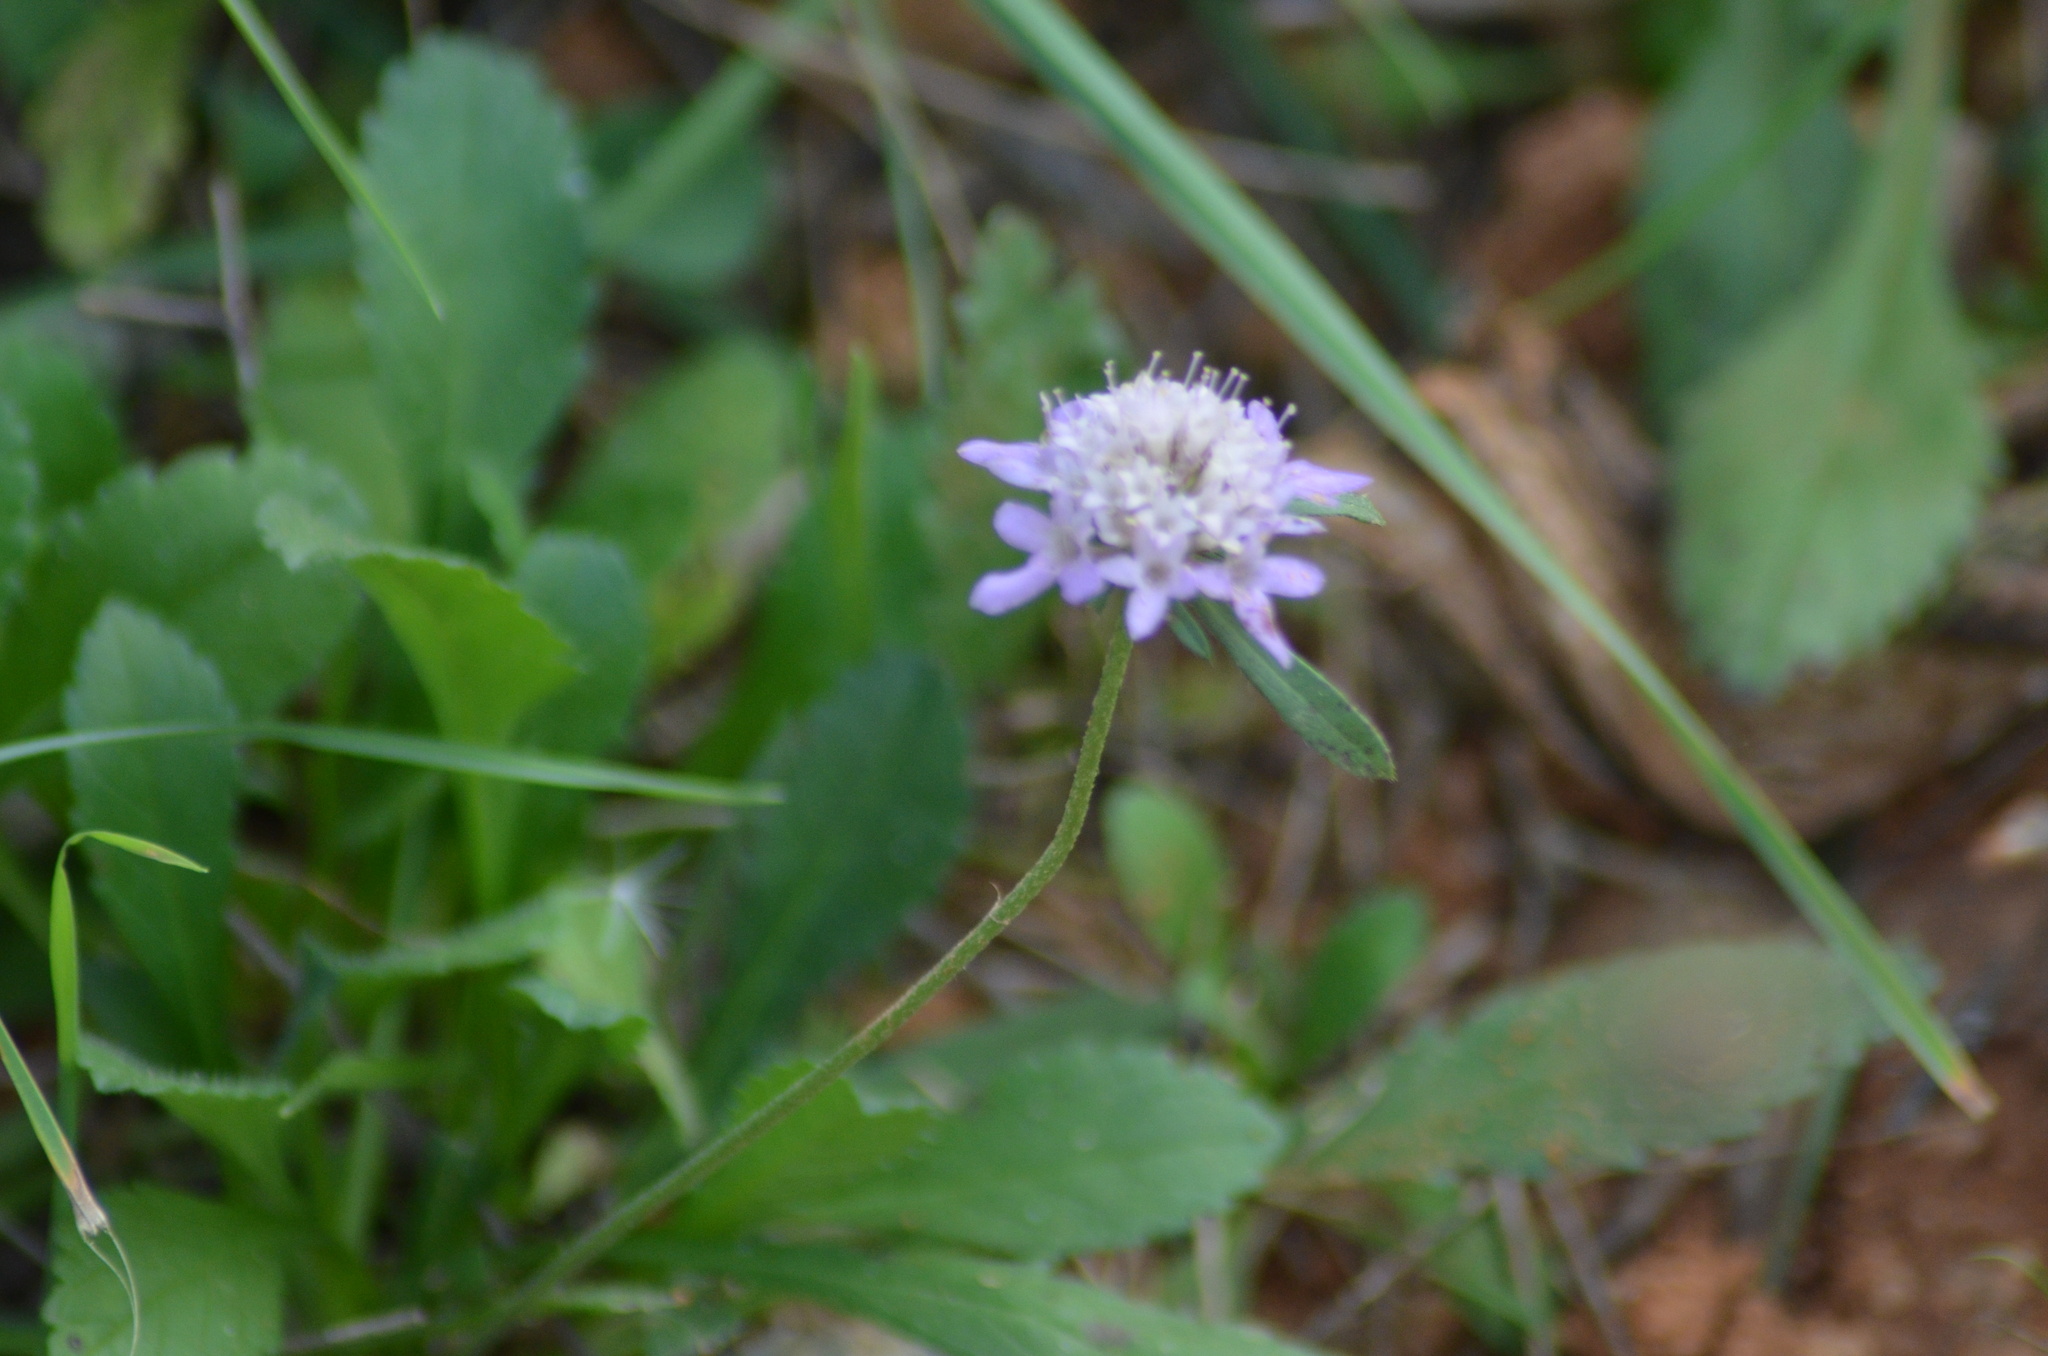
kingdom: Plantae
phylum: Tracheophyta
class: Magnoliopsida
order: Dipsacales
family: Caprifoliaceae
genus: Sixalix
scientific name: Sixalix atropurpurea
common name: Sweet scabious
